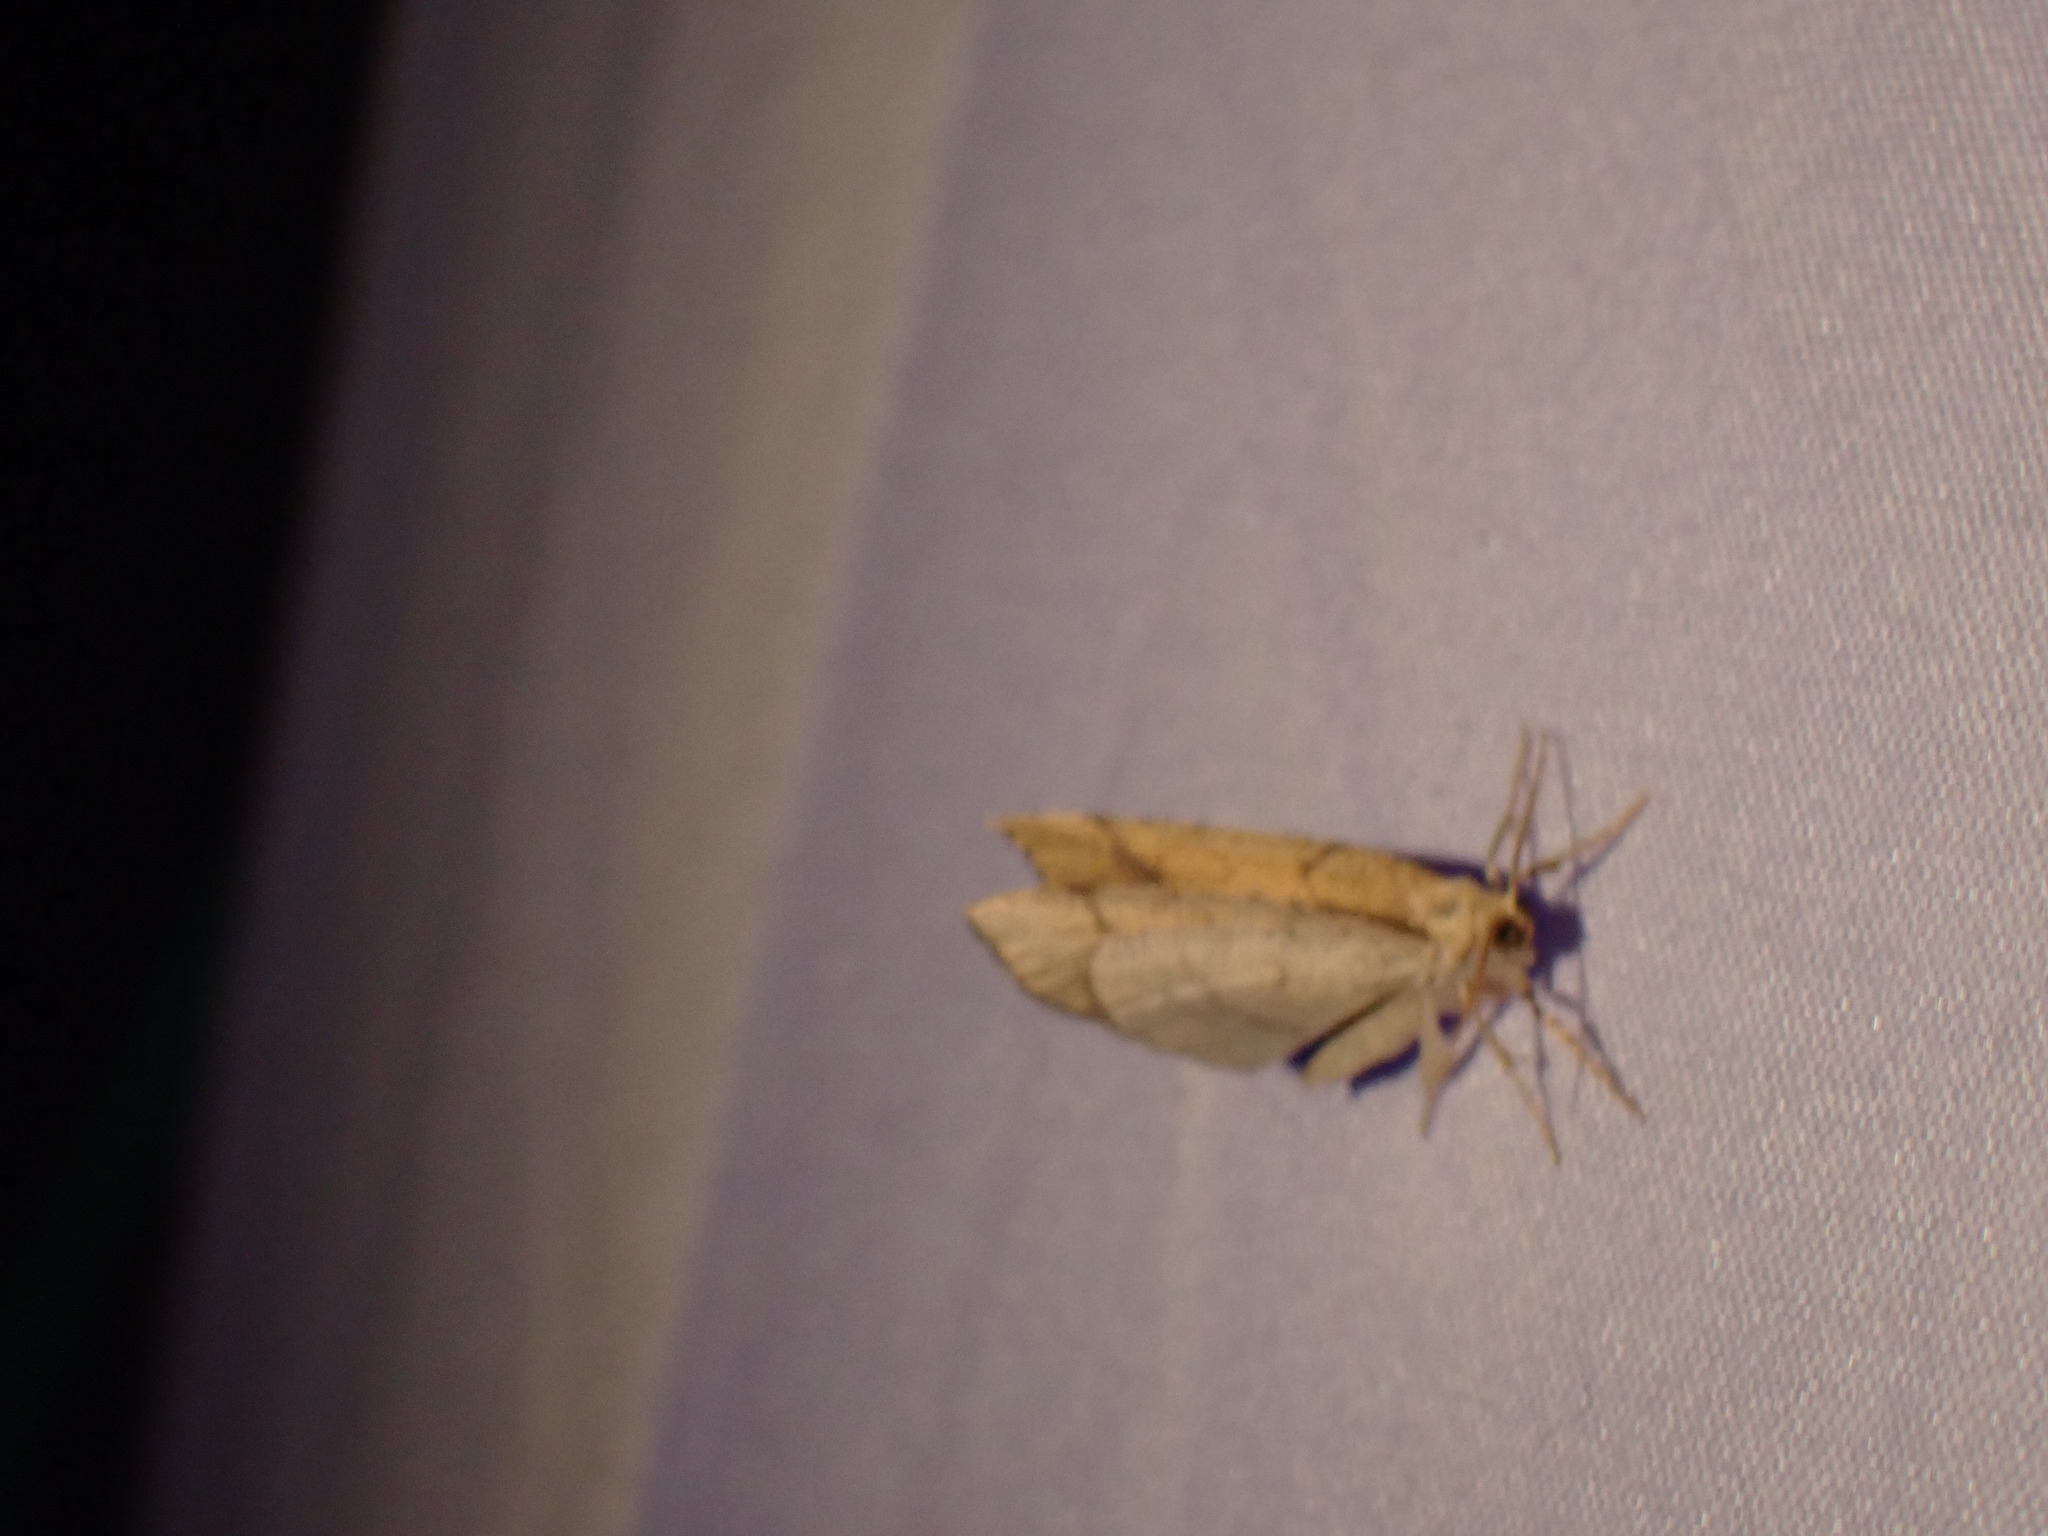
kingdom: Animalia
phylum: Arthropoda
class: Insecta
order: Lepidoptera
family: Geometridae
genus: Nematocampa
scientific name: Nematocampa resistaria
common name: Horned spanworm moth
